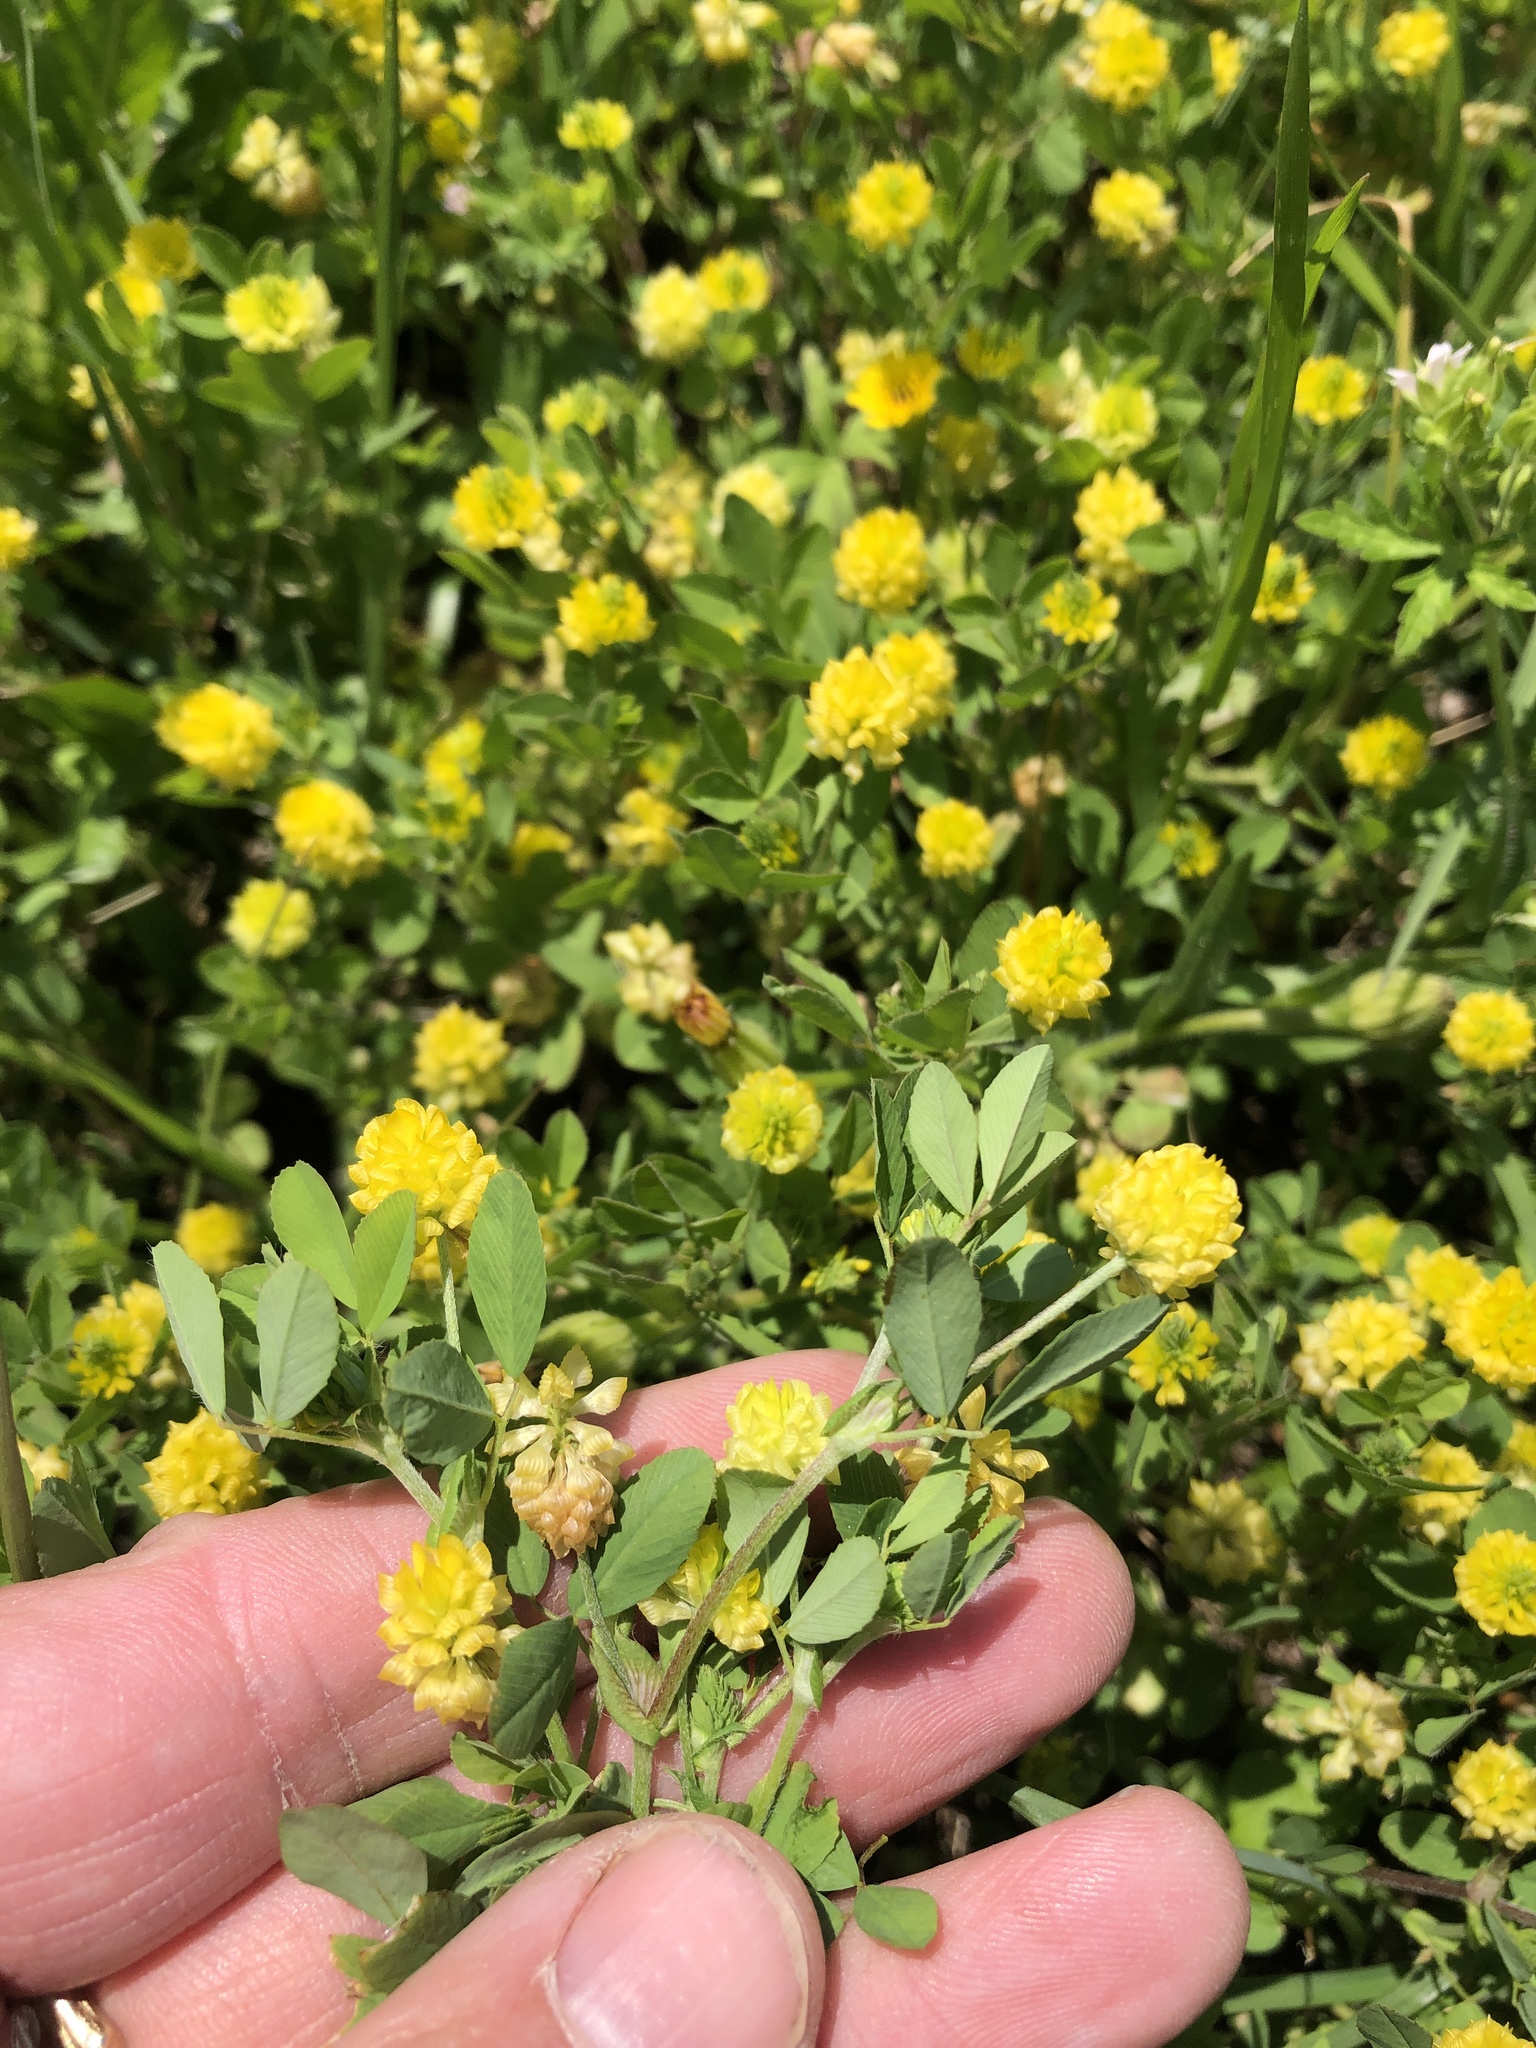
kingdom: Plantae
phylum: Tracheophyta
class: Magnoliopsida
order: Fabales
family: Fabaceae
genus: Trifolium
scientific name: Trifolium campestre
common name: Field clover
